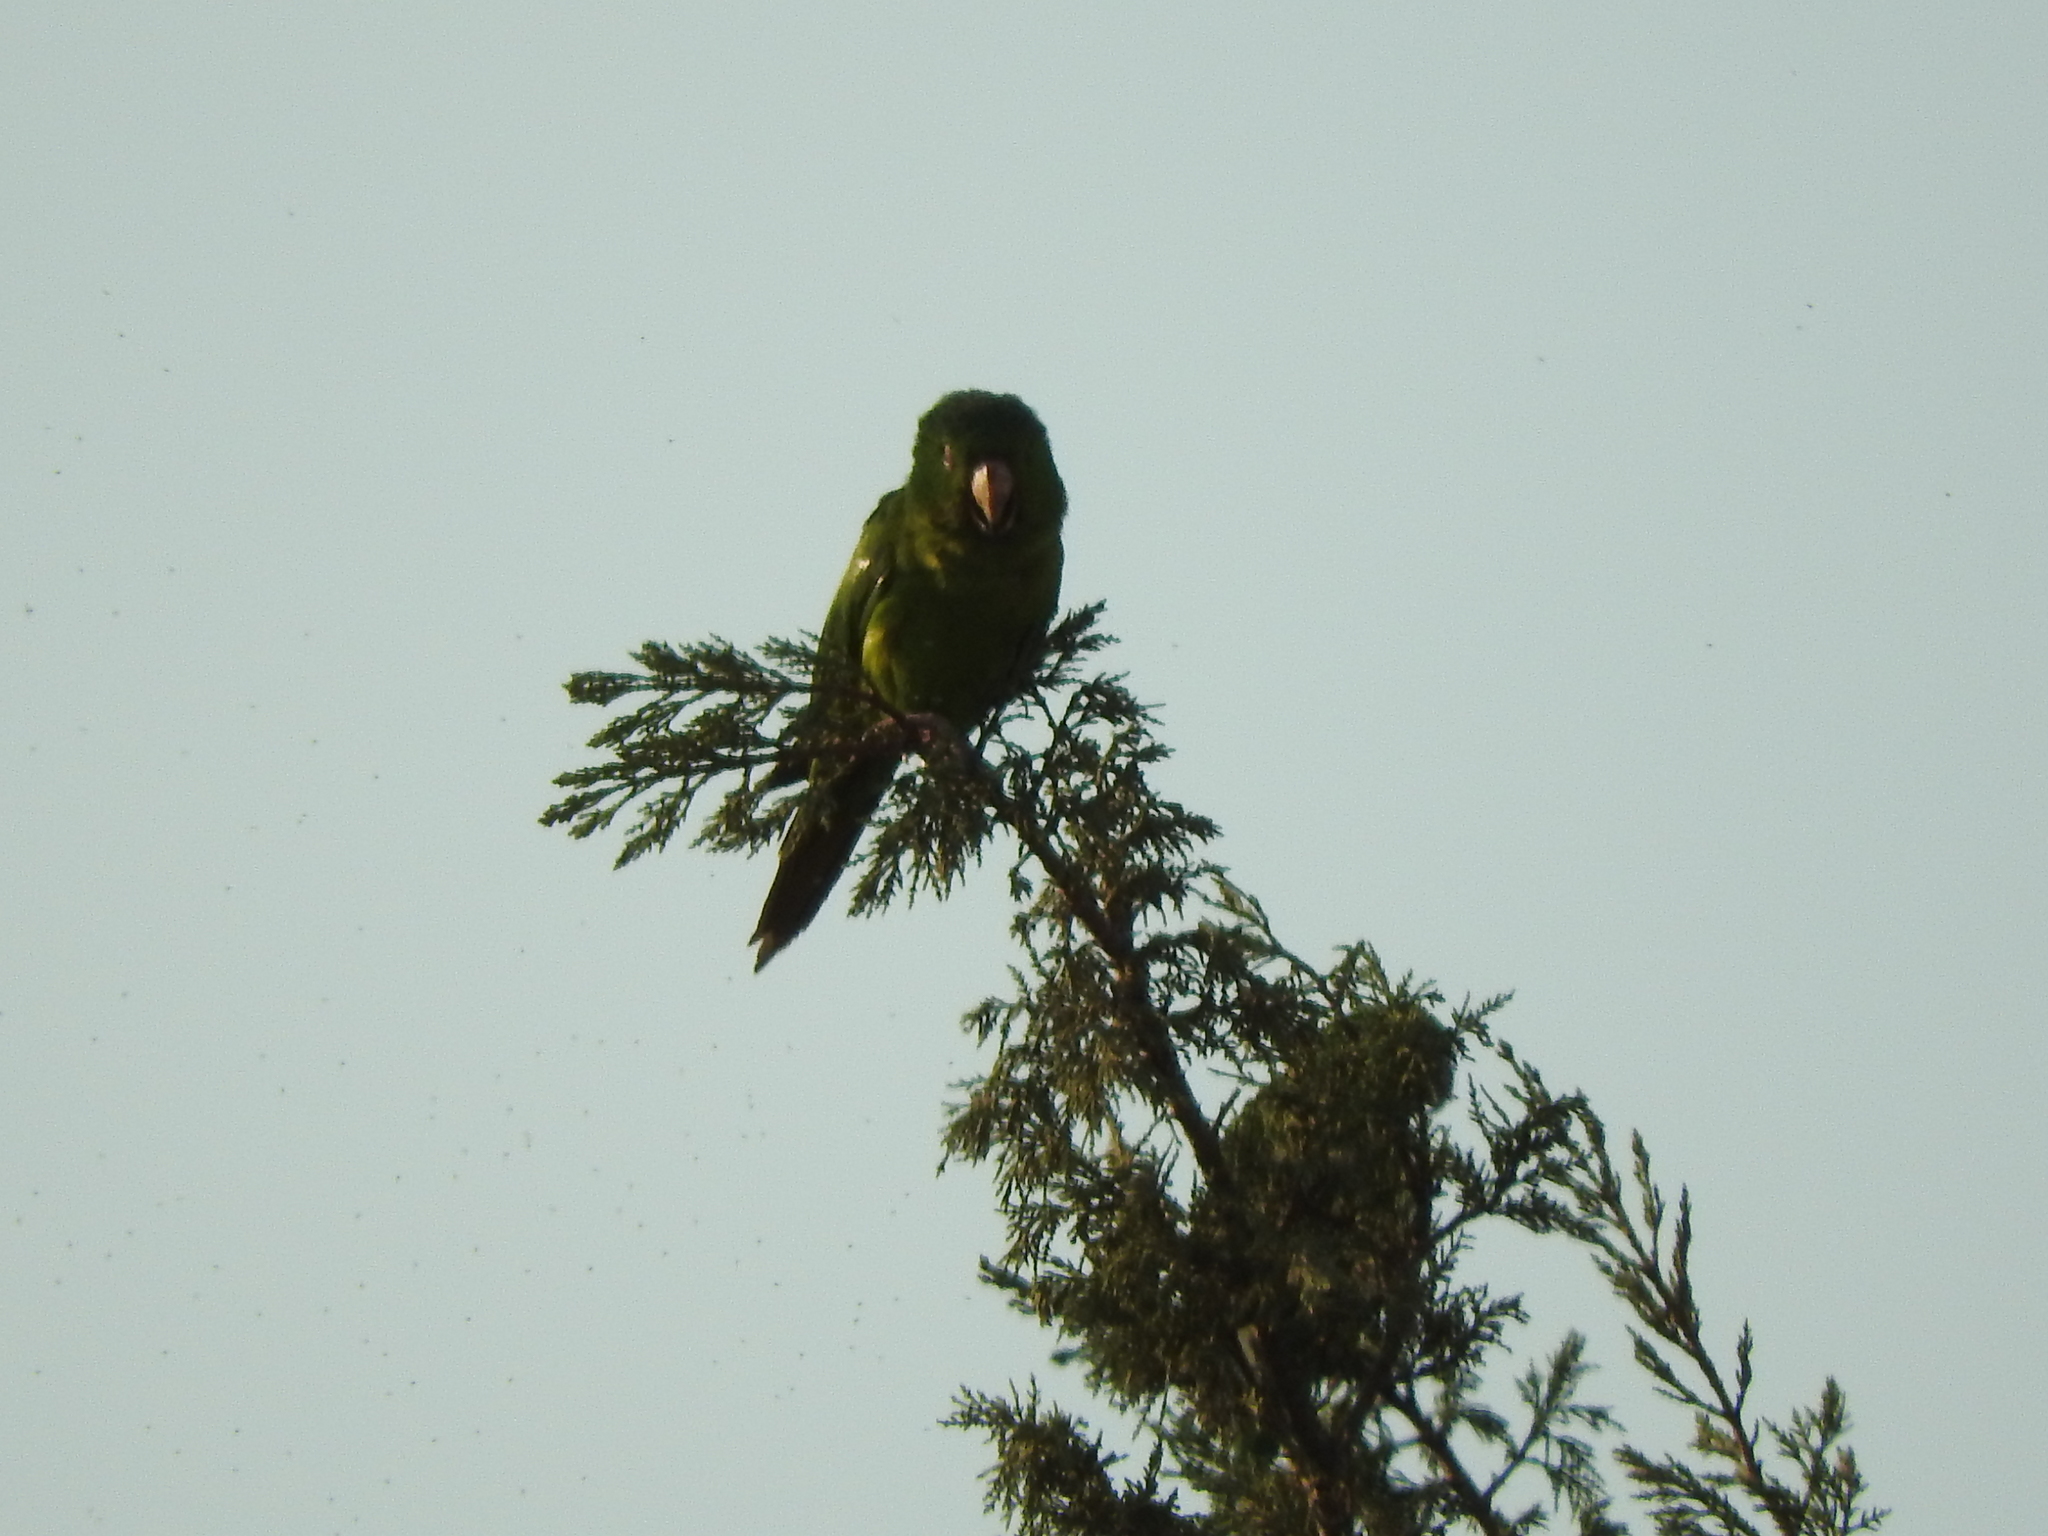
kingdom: Animalia
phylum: Chordata
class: Aves
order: Psittaciformes
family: Psittacidae
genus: Aratinga
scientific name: Aratinga holochlora
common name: Green parakeet
